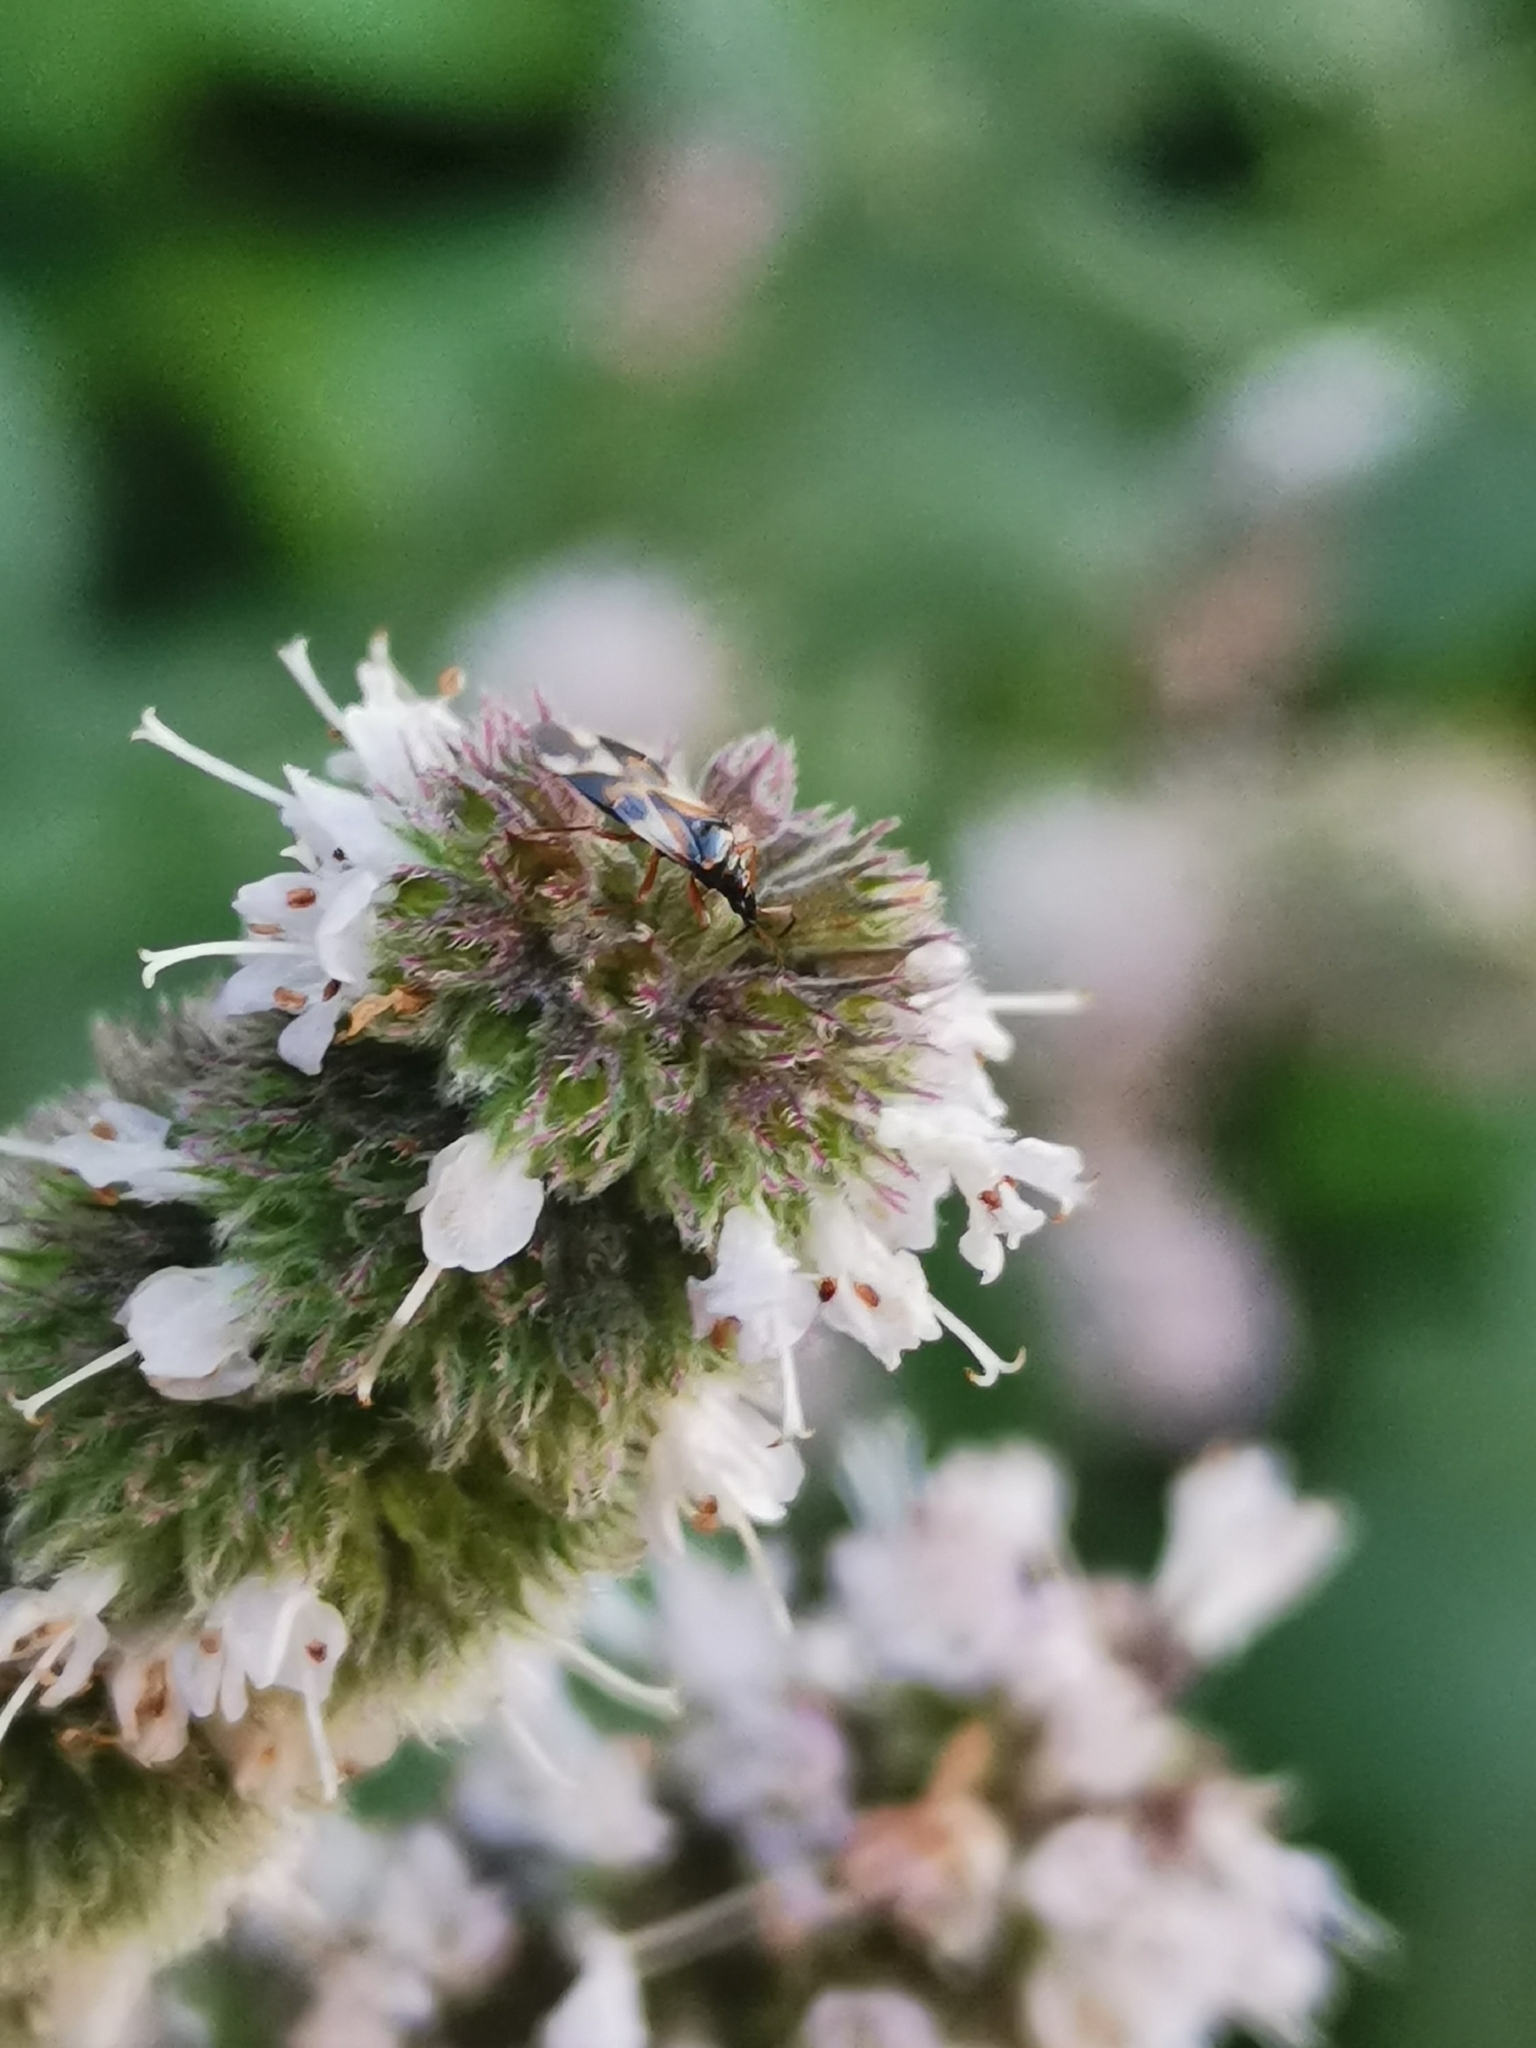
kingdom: Animalia
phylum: Arthropoda
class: Insecta
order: Hemiptera
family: Anthocoridae
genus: Anthocoris
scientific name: Anthocoris nemorum
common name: Minute pirate bug
